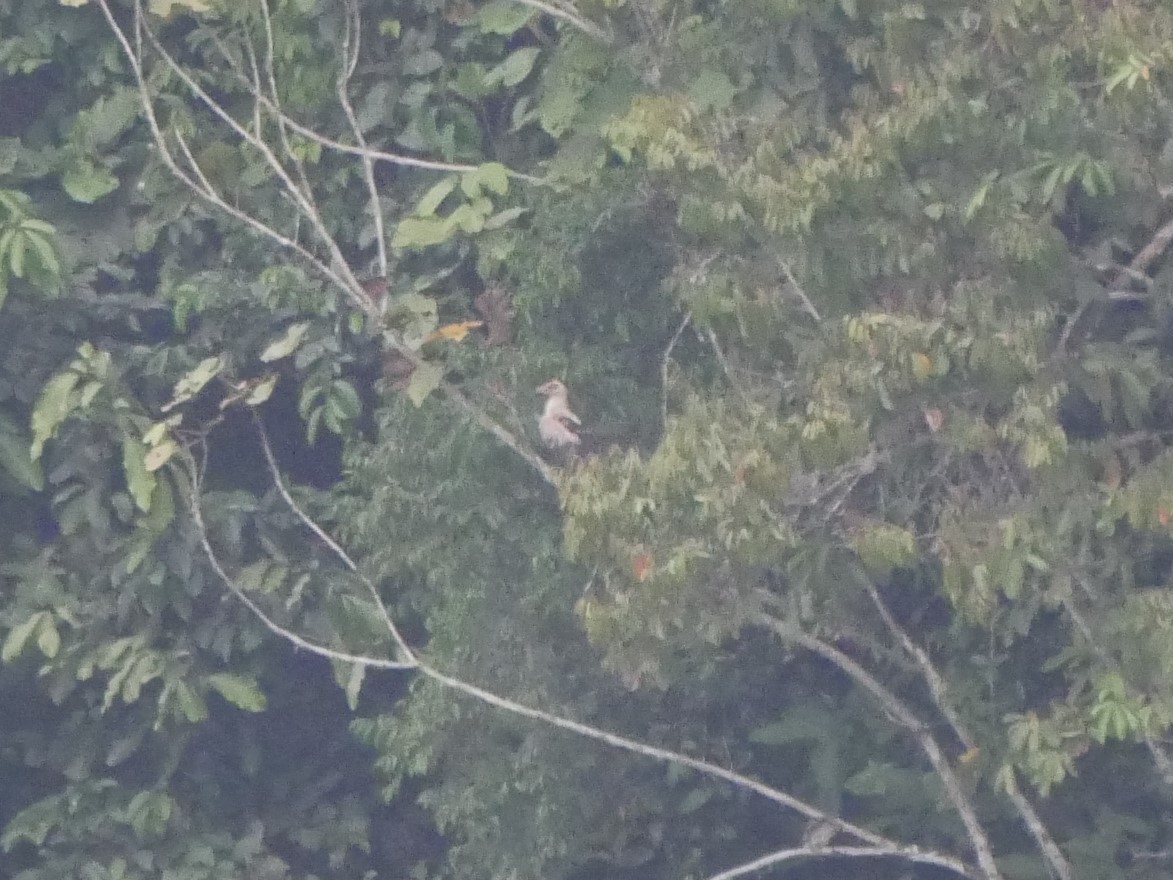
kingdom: Animalia
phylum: Chordata
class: Aves
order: Accipitriformes
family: Accipitridae
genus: Gypohierax
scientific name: Gypohierax angolensis
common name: Palm-nut vulture
